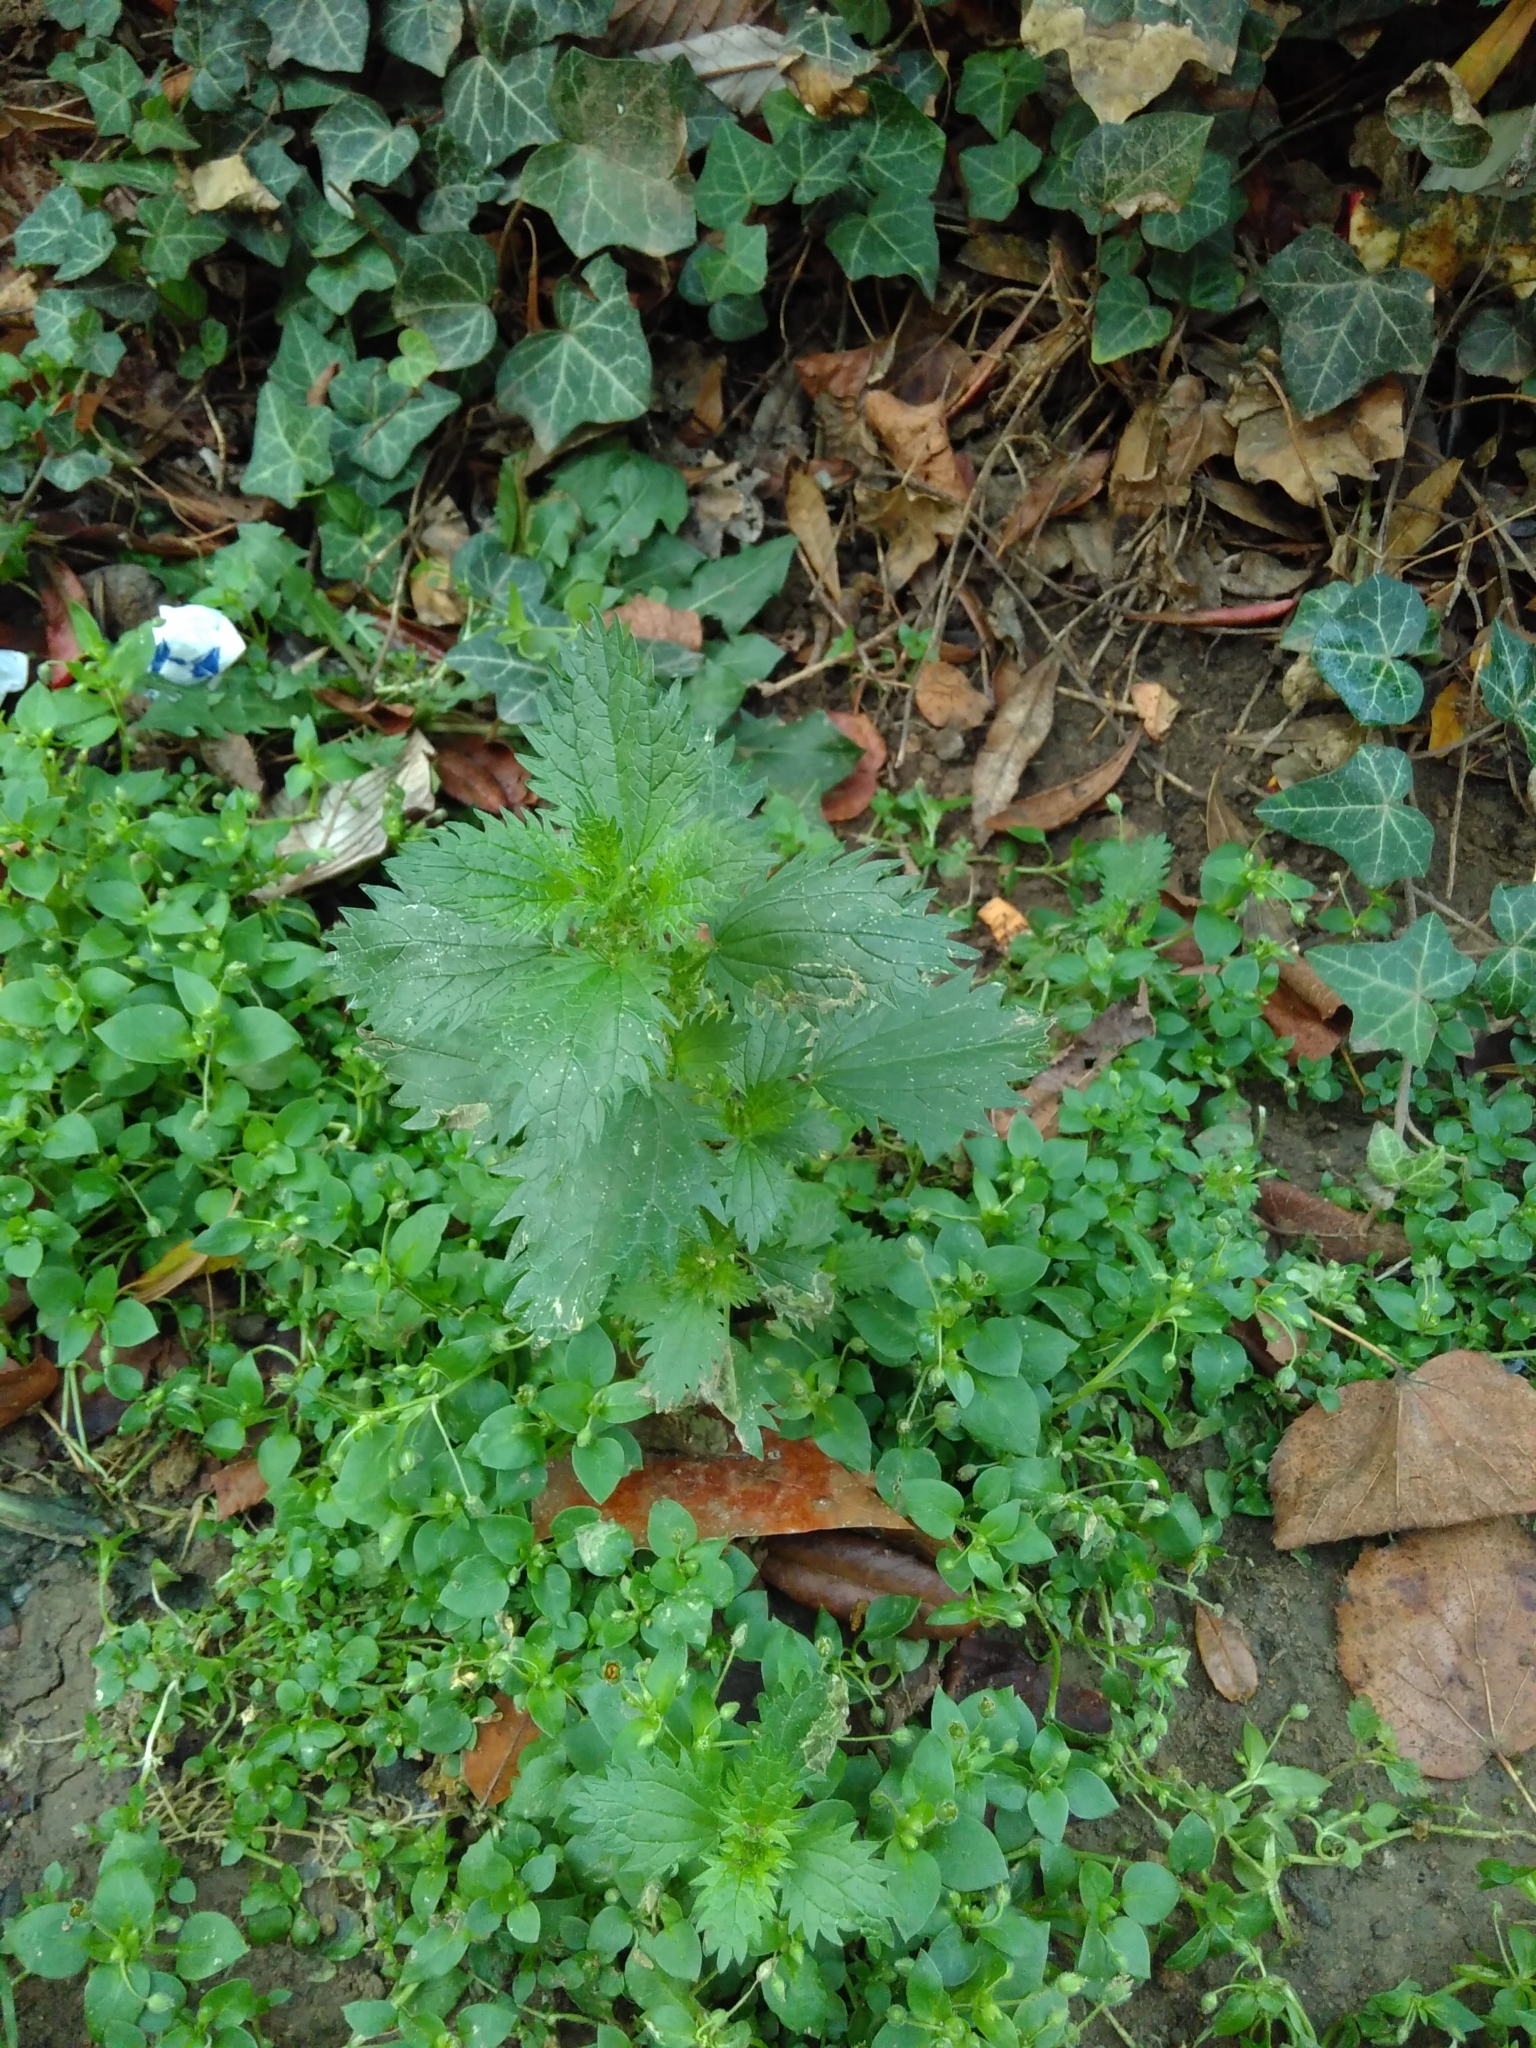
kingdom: Plantae
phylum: Tracheophyta
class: Magnoliopsida
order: Rosales
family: Urticaceae
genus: Urtica
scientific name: Urtica dioica
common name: Common nettle
